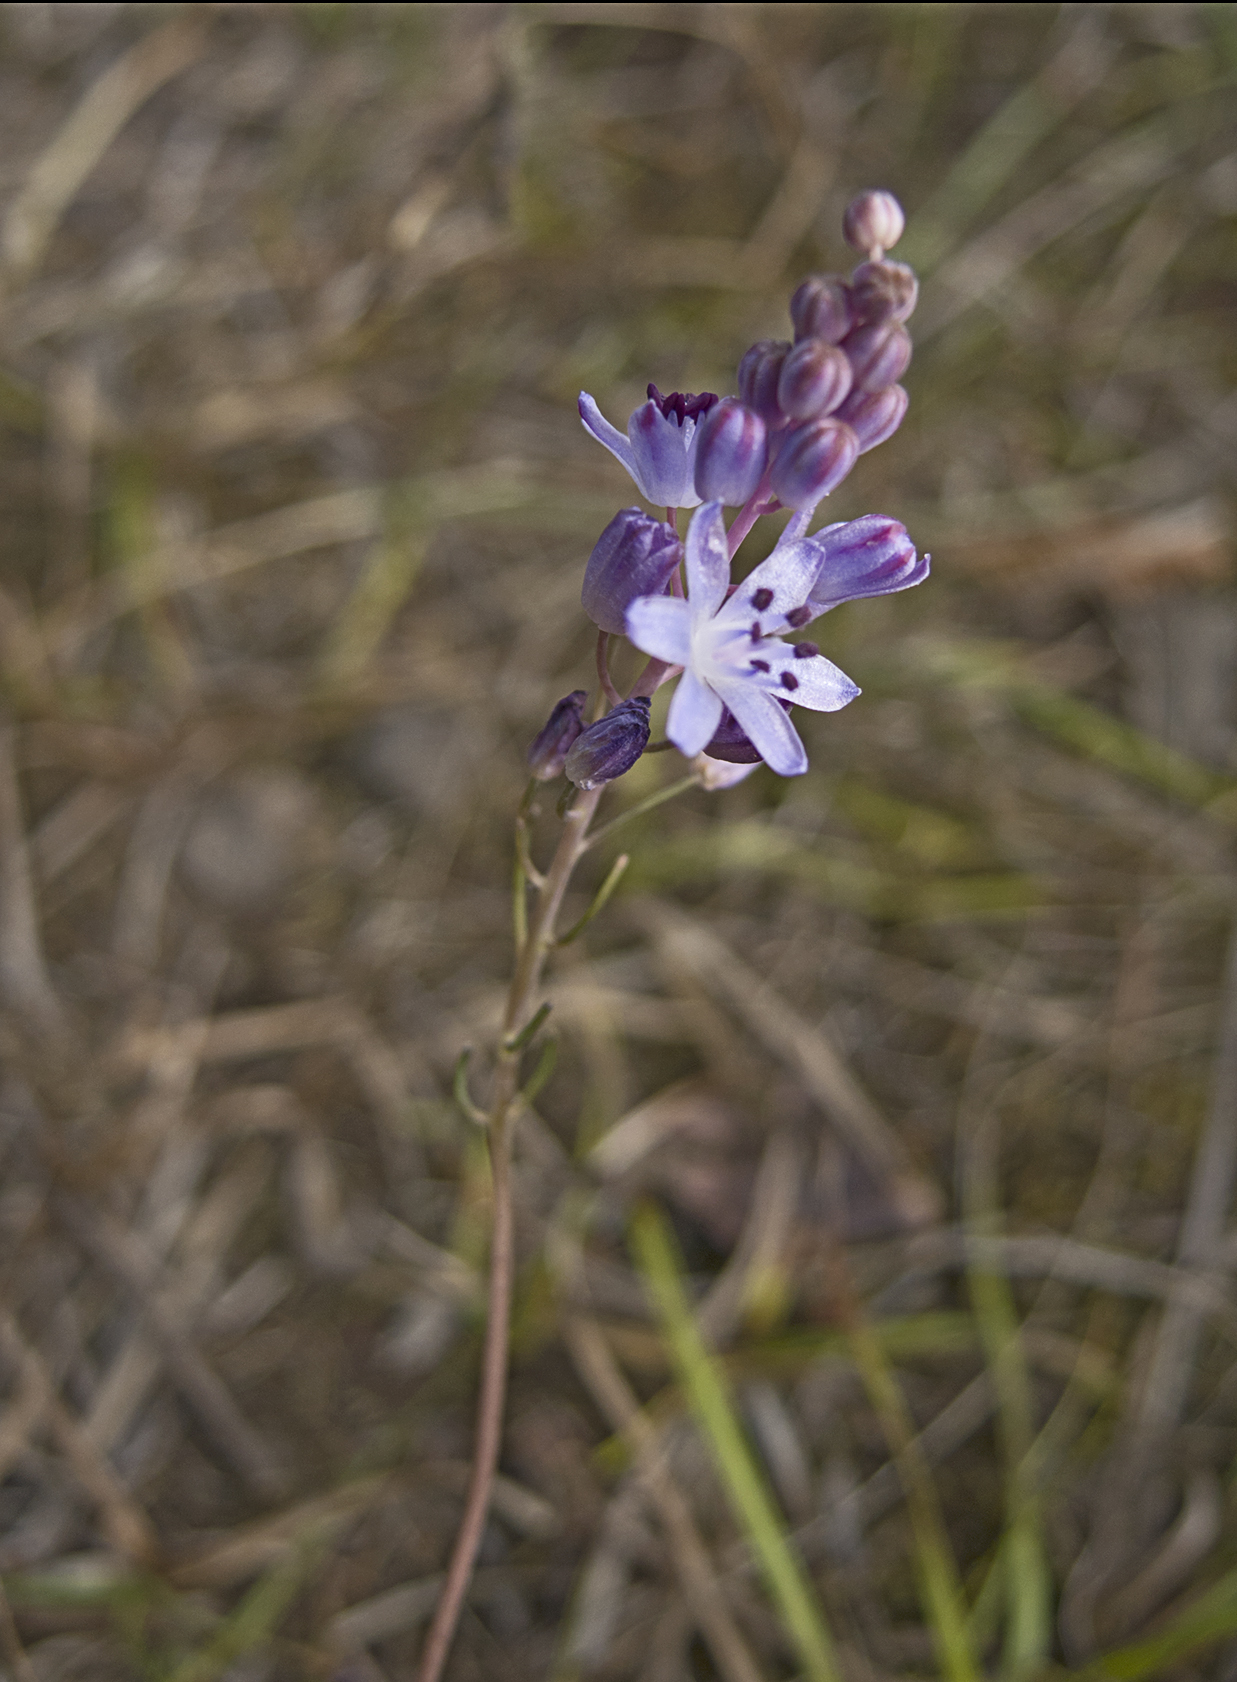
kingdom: Plantae
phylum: Tracheophyta
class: Liliopsida
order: Asparagales
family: Asparagaceae
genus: Prospero
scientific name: Prospero autumnale
